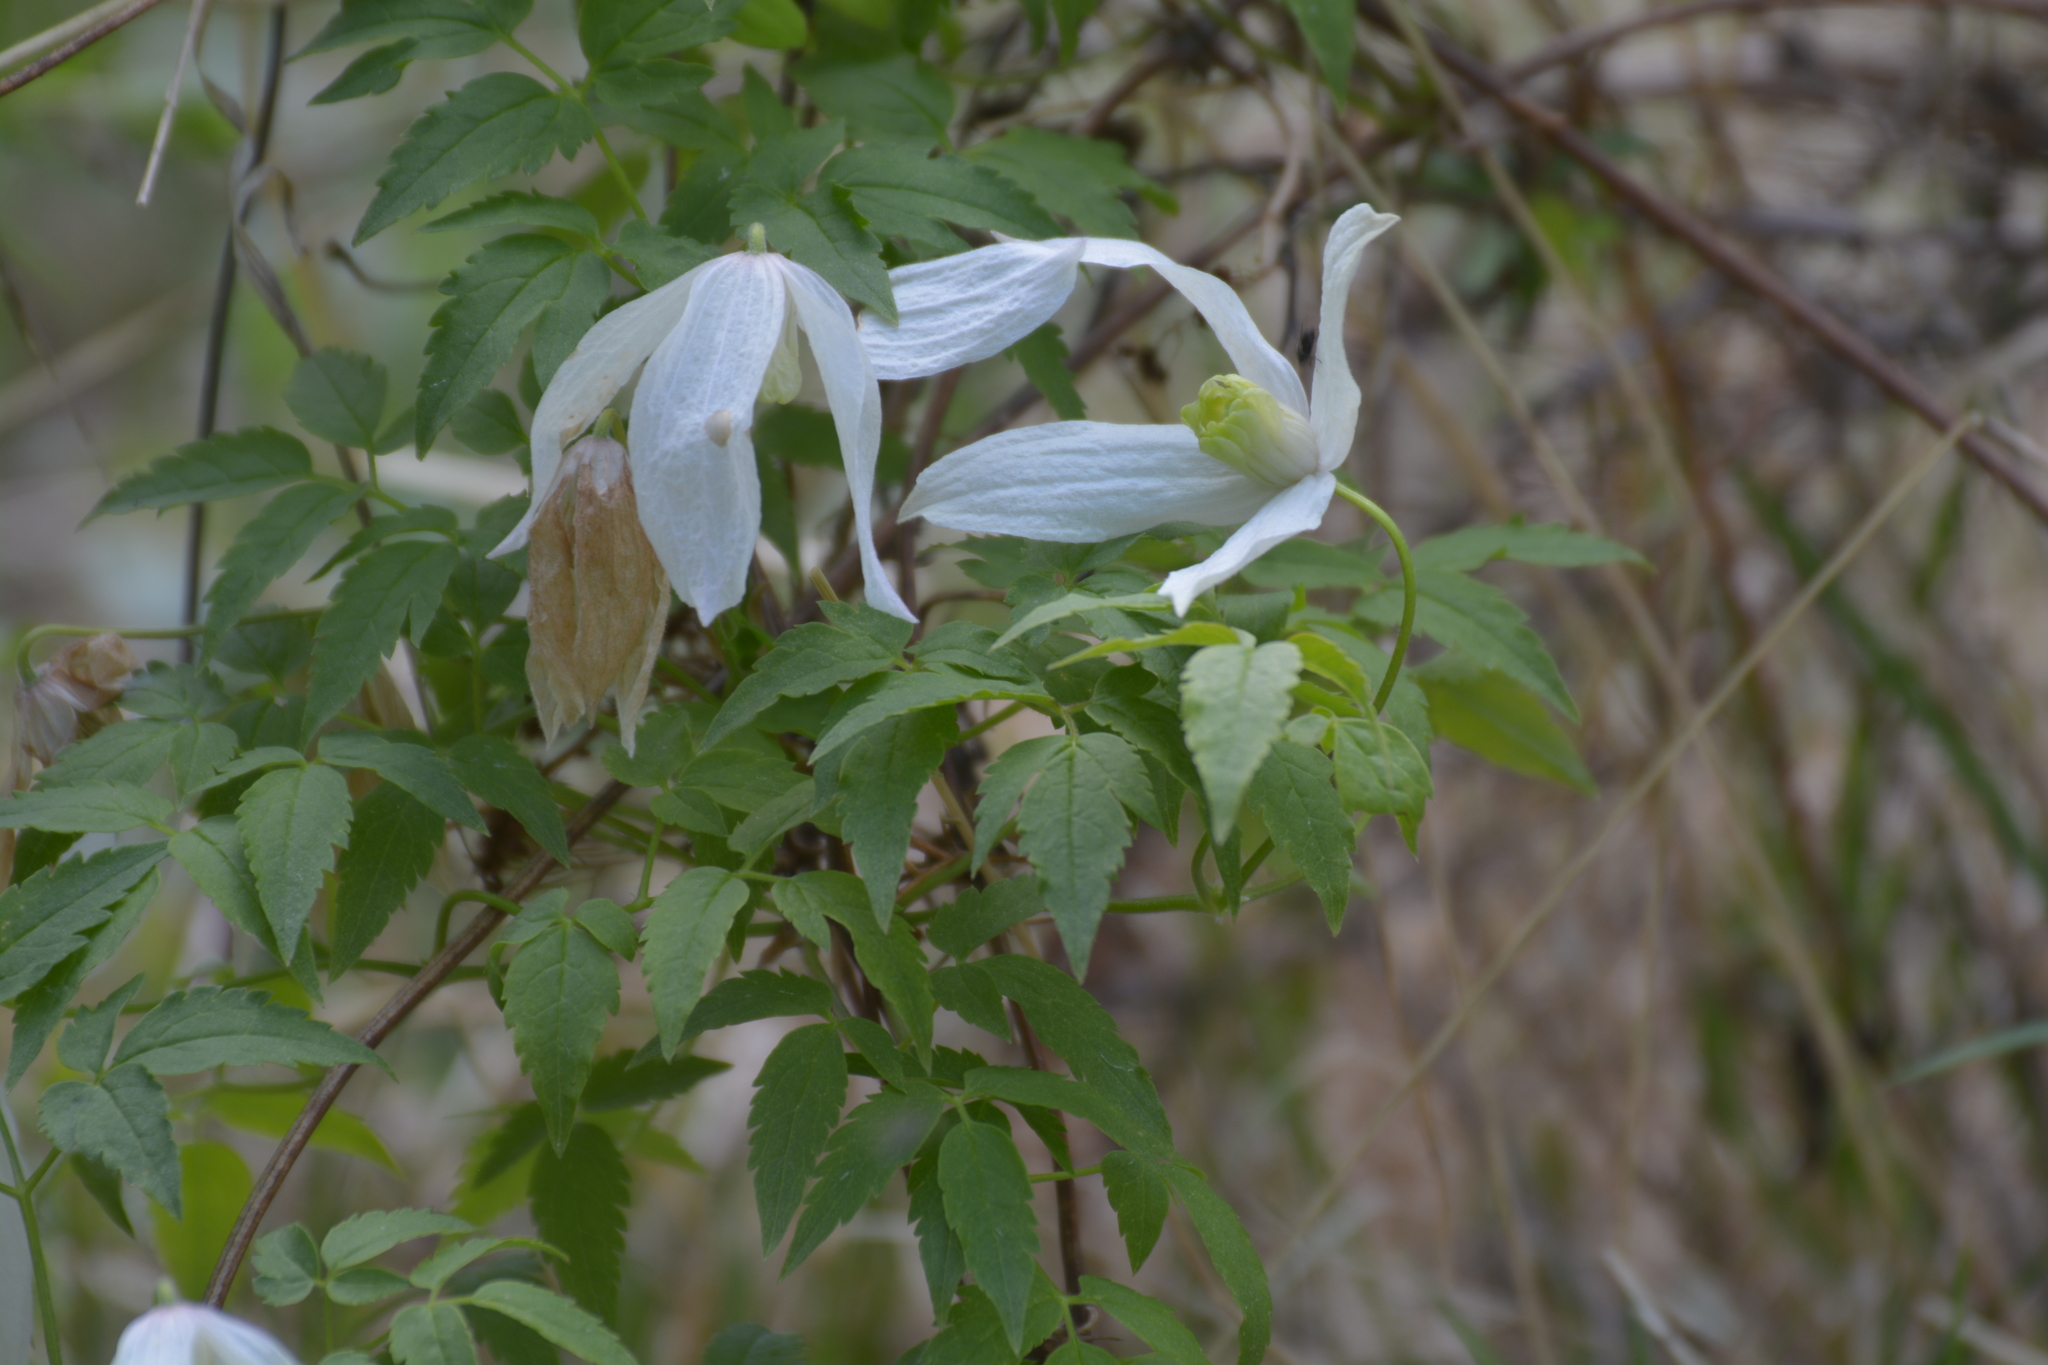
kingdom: Plantae
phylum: Tracheophyta
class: Magnoliopsida
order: Ranunculales
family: Ranunculaceae
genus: Clematis
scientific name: Clematis sibirica
